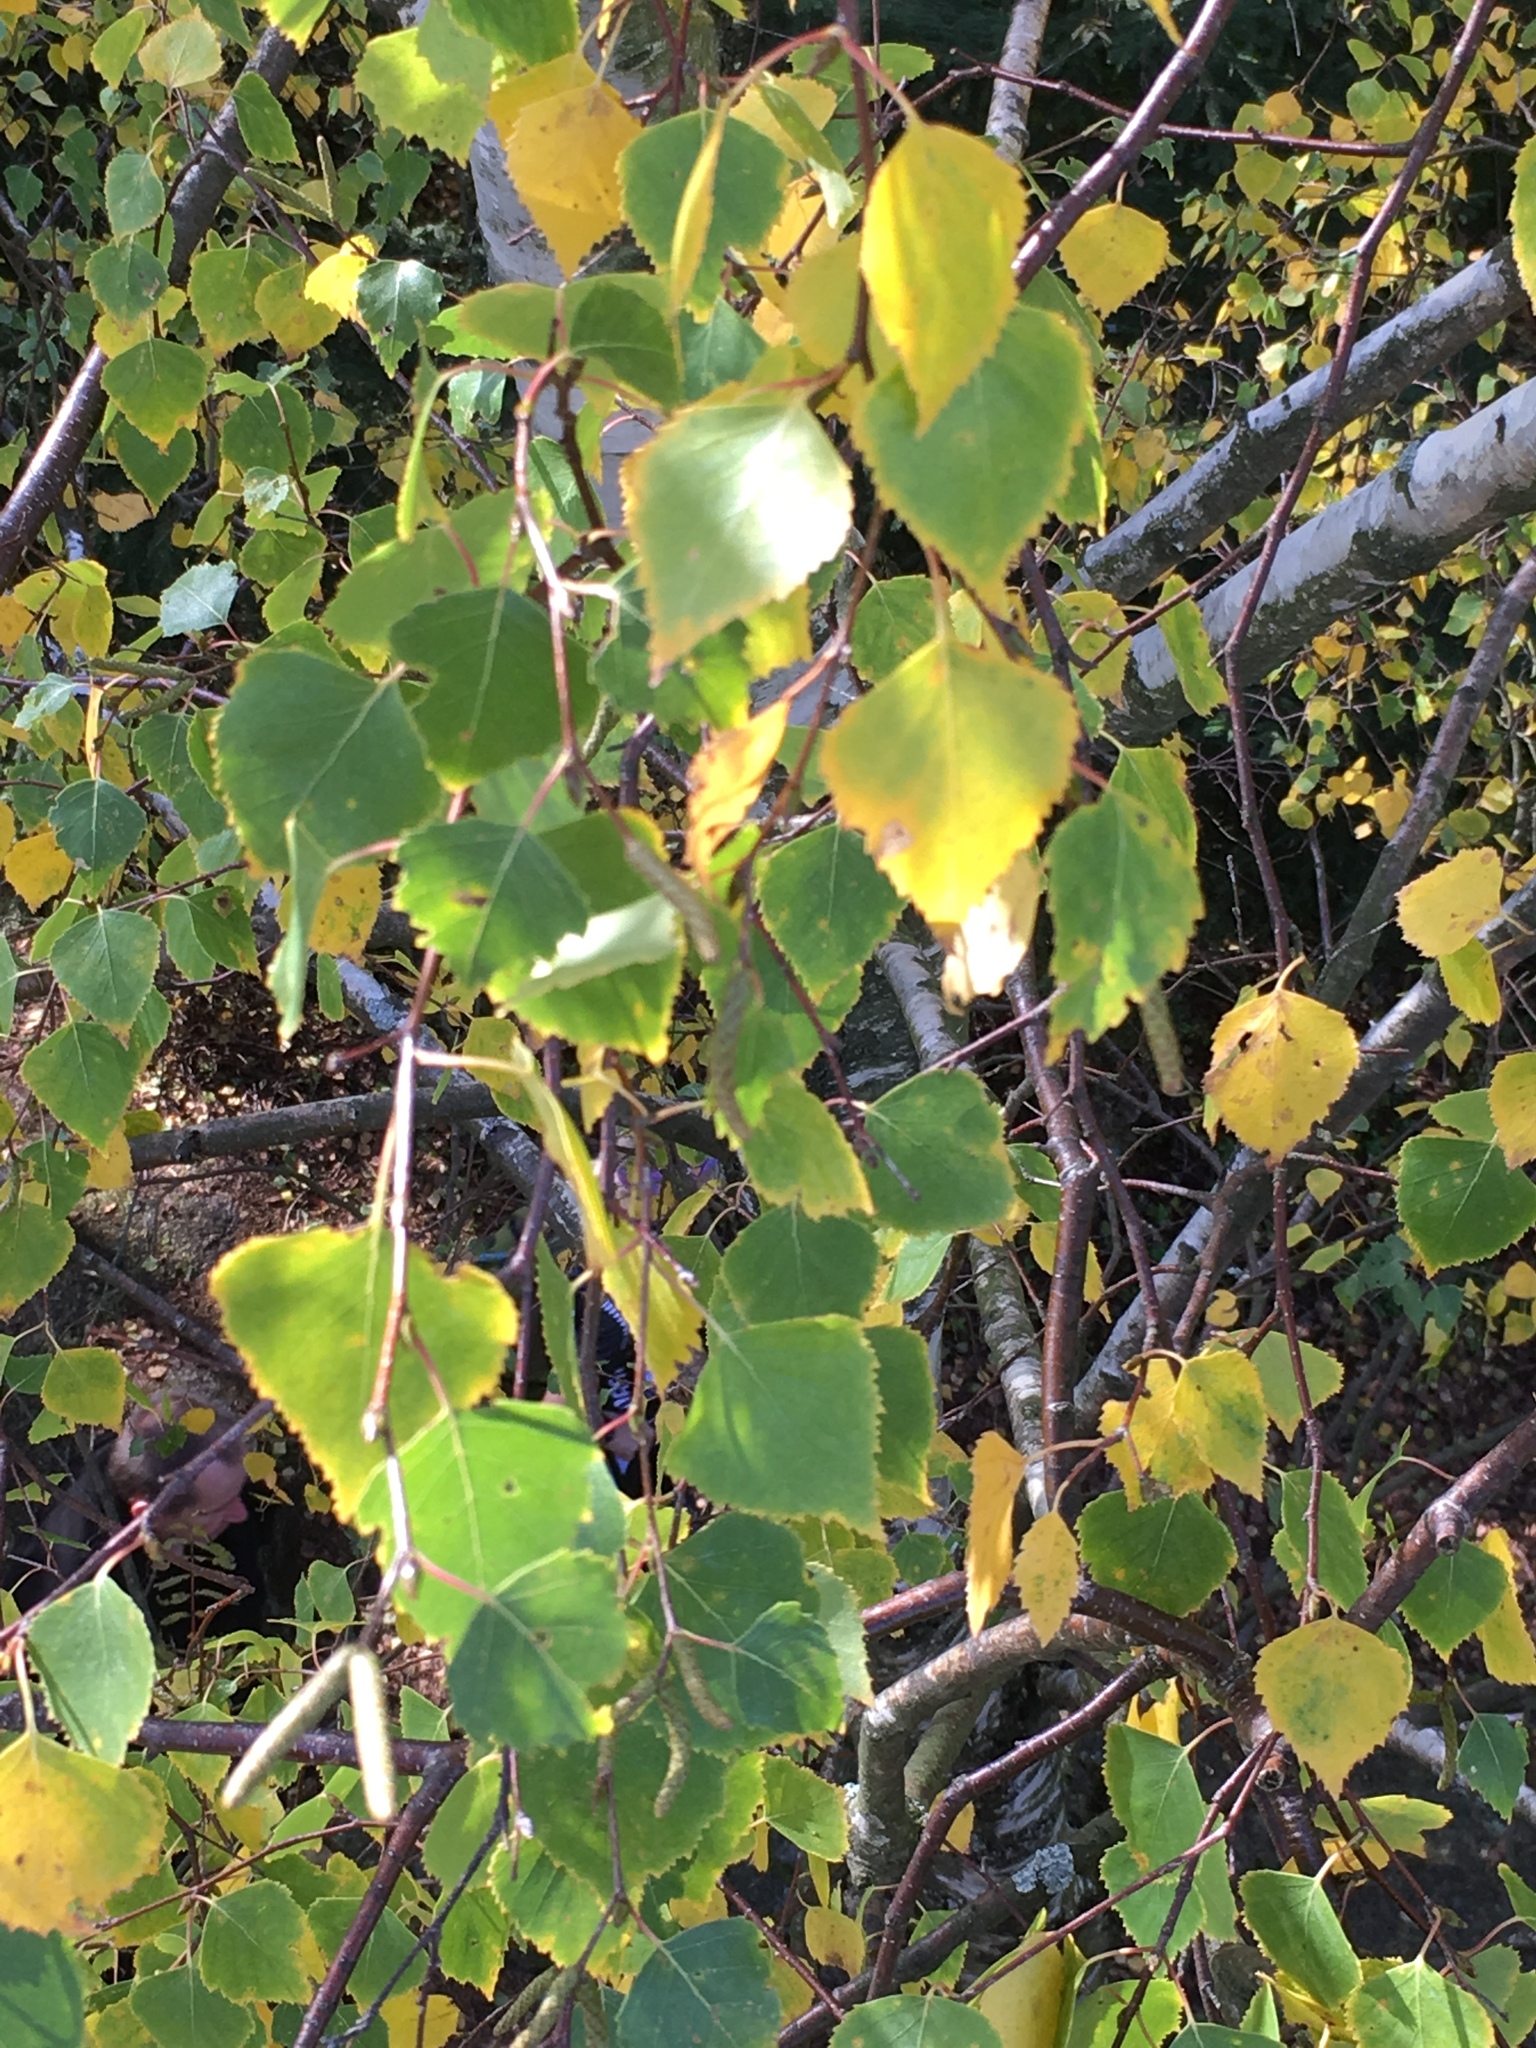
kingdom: Plantae
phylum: Tracheophyta
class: Magnoliopsida
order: Fagales
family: Betulaceae
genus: Betula
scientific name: Betula pendula
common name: Silver birch
